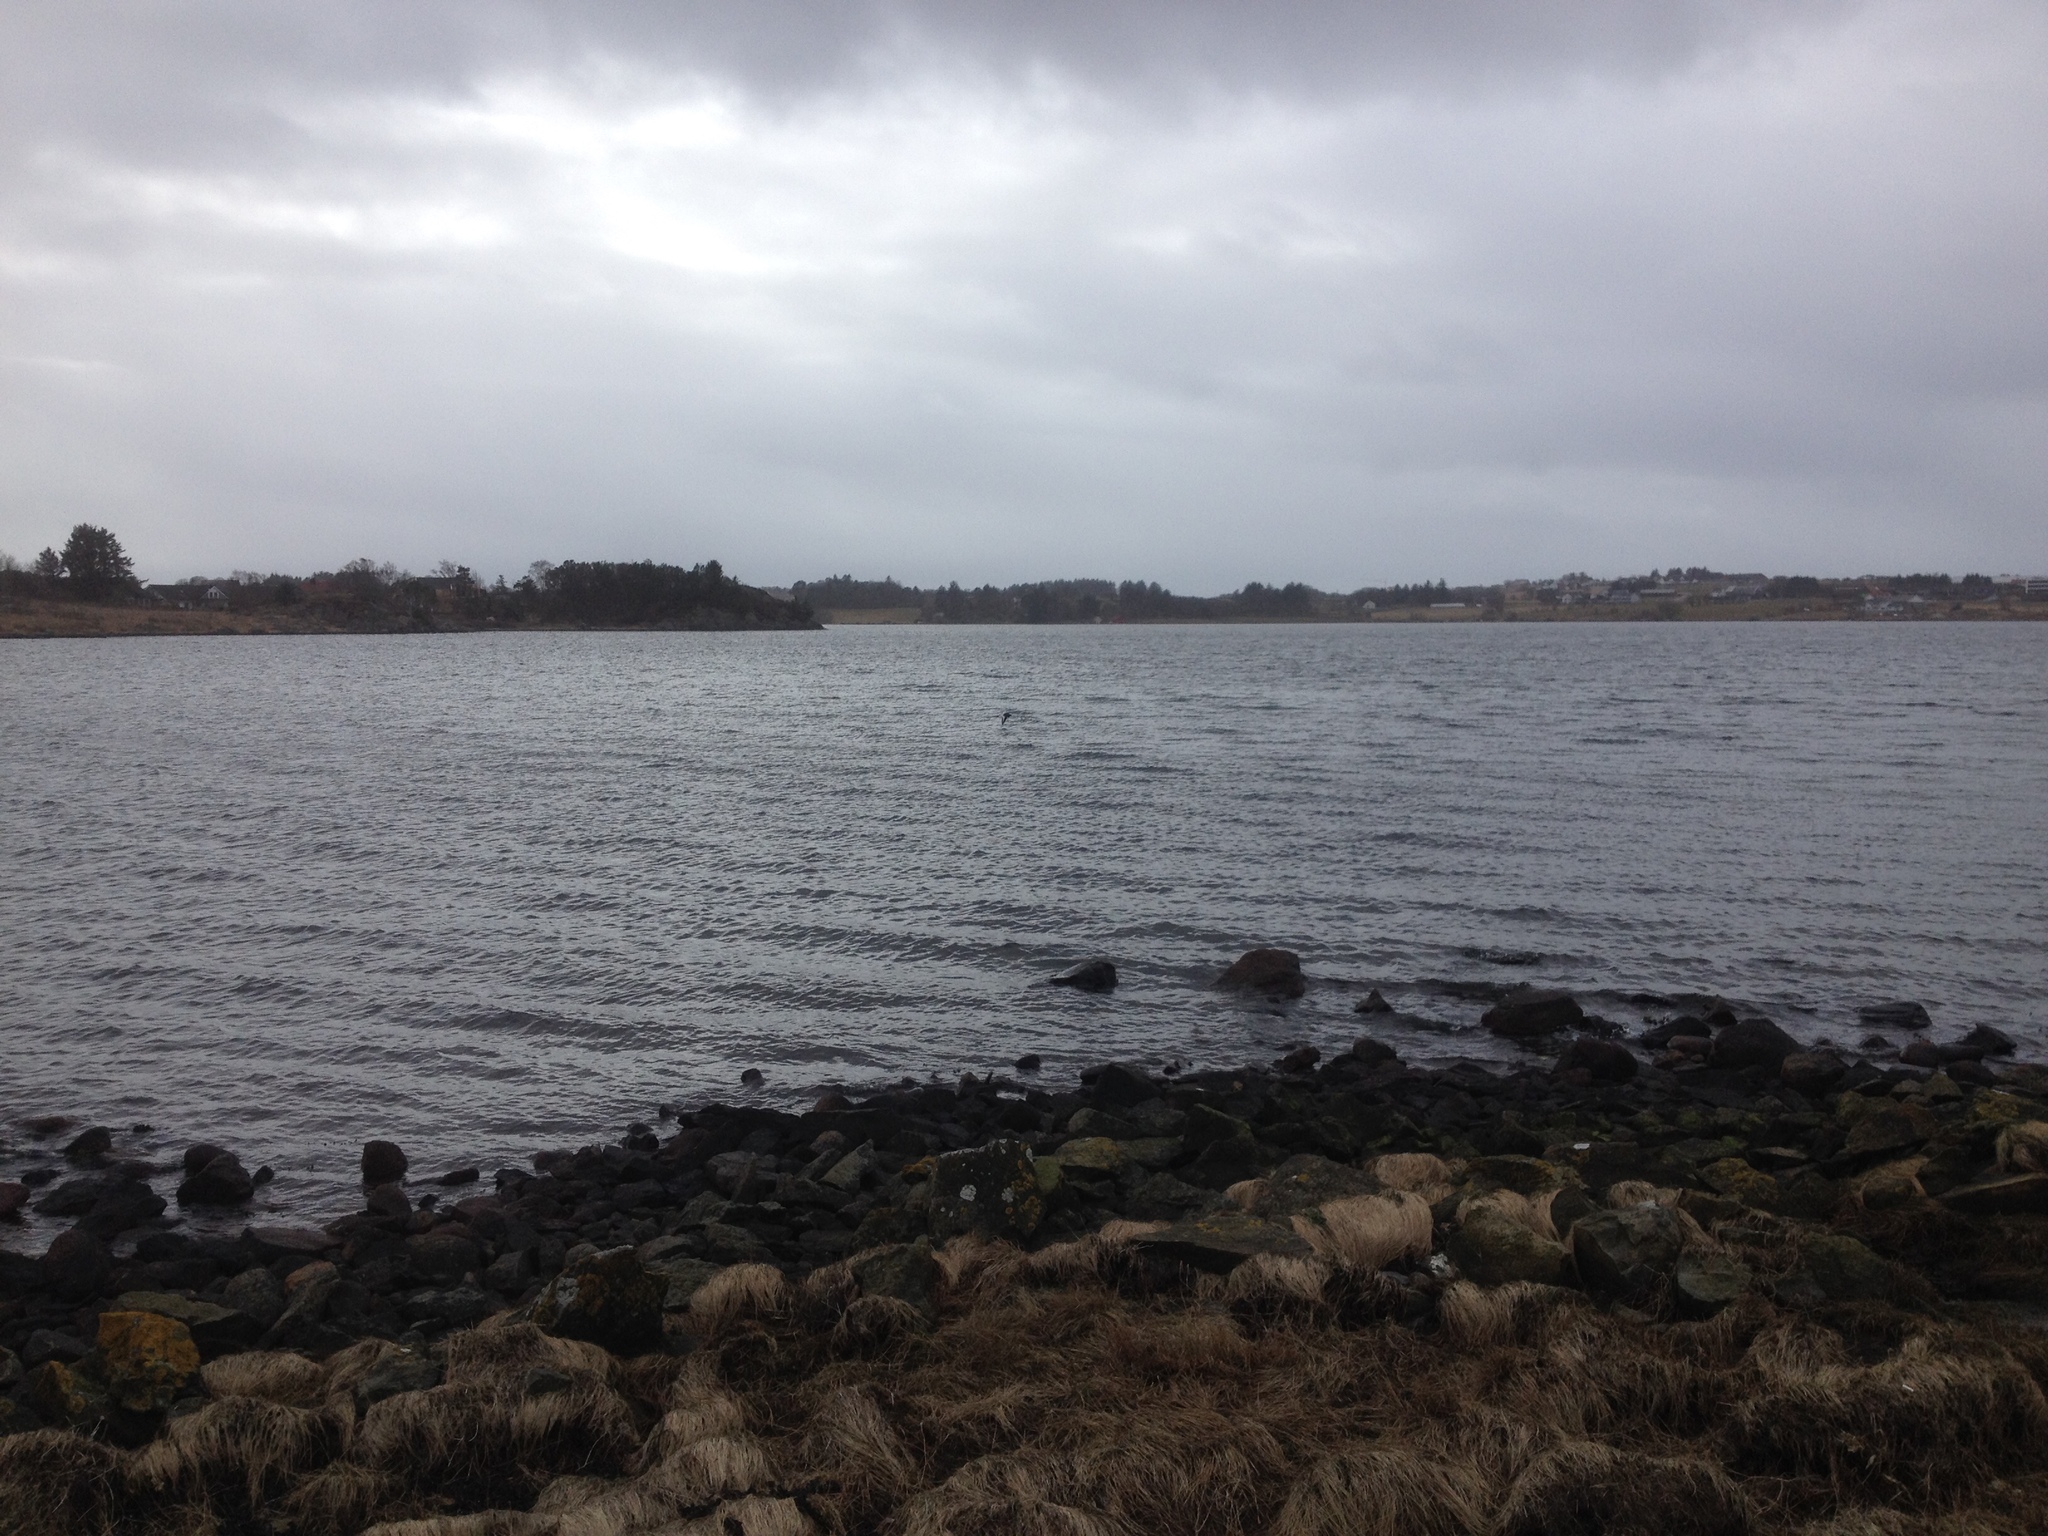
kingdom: Animalia
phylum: Chordata
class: Aves
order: Charadriiformes
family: Haematopodidae
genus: Haematopus
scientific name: Haematopus ostralegus
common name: Eurasian oystercatcher
